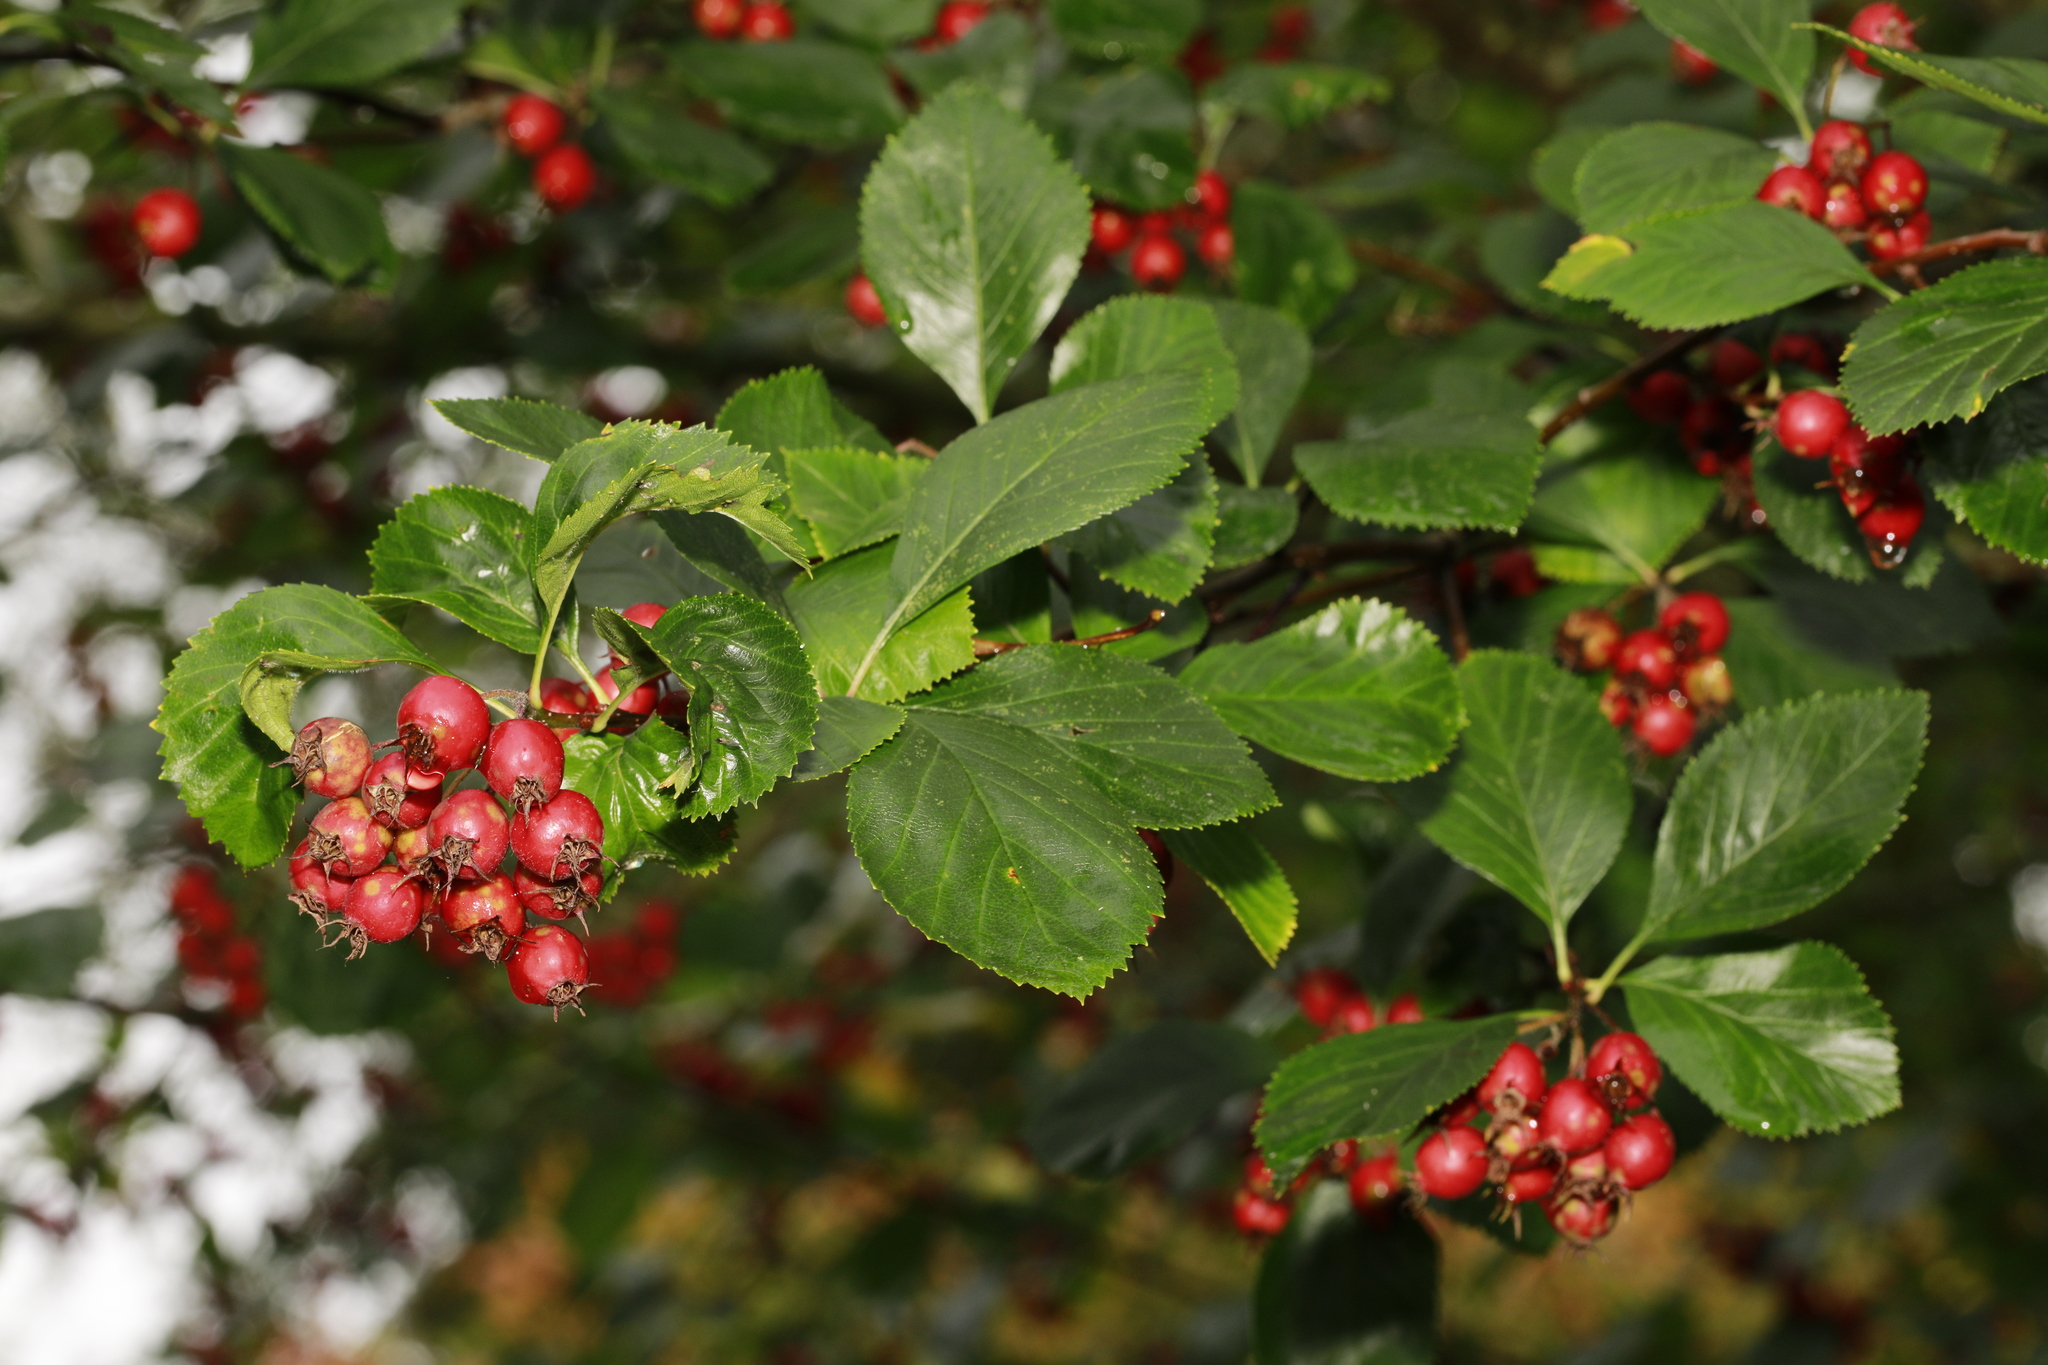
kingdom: Plantae
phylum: Tracheophyta
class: Magnoliopsida
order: Rosales
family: Rosaceae
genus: Crataegus
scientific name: Crataegus persimilis
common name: Broad-leaved cockspurthorn
